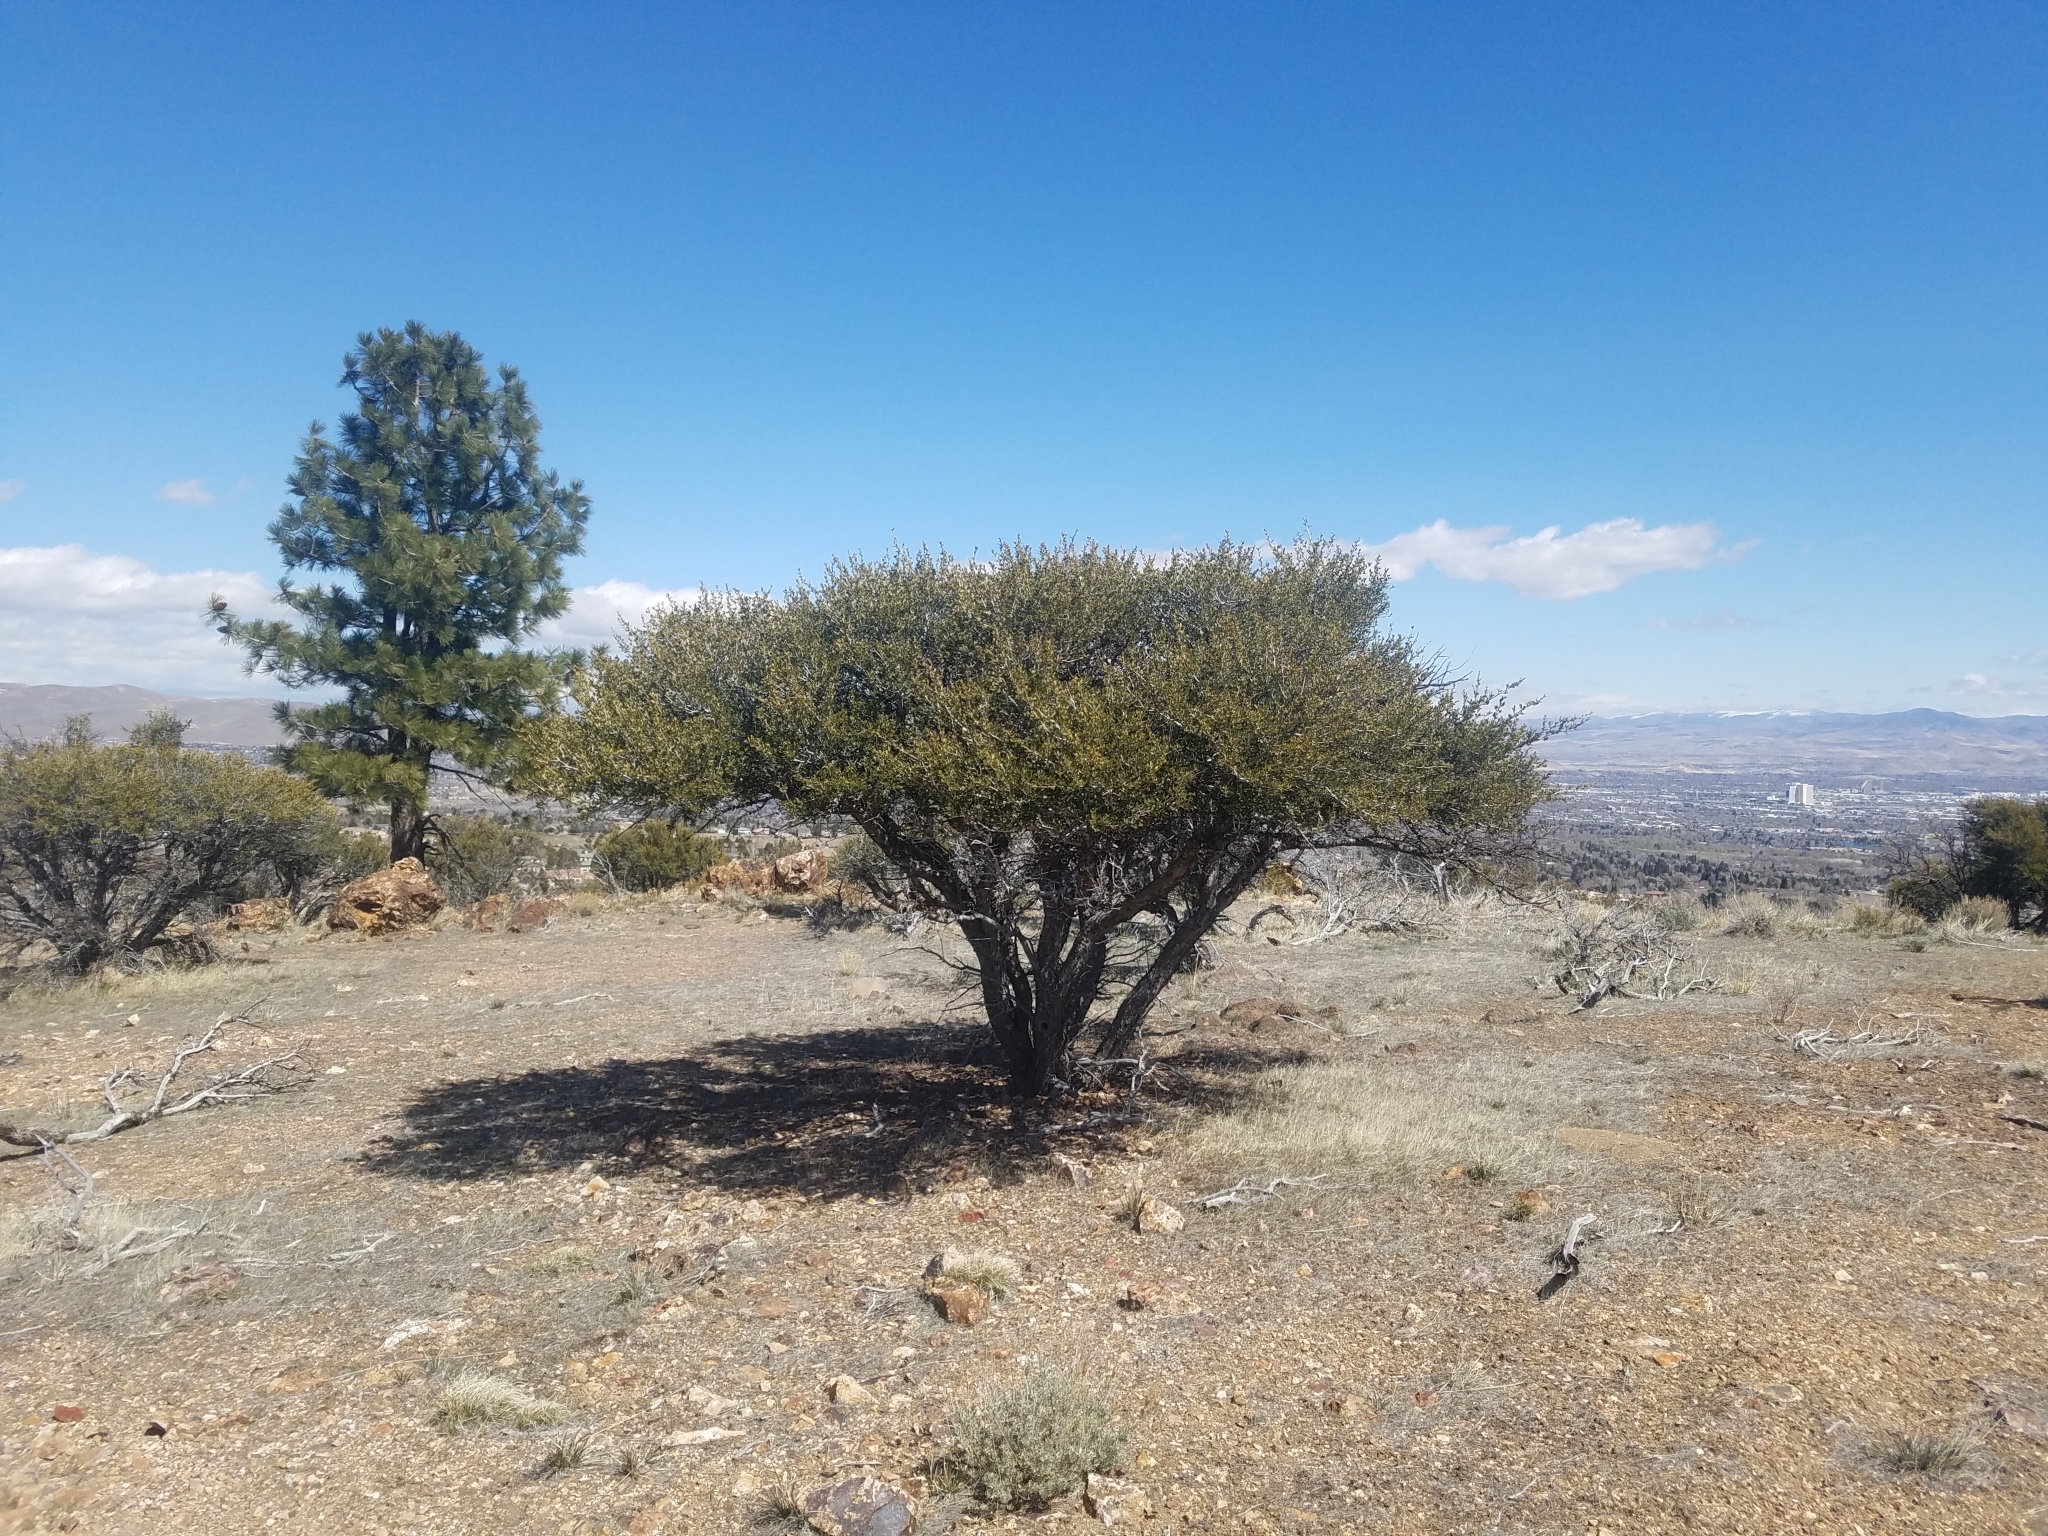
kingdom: Plantae
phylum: Tracheophyta
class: Magnoliopsida
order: Rosales
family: Rosaceae
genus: Cercocarpus
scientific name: Cercocarpus ledifolius
